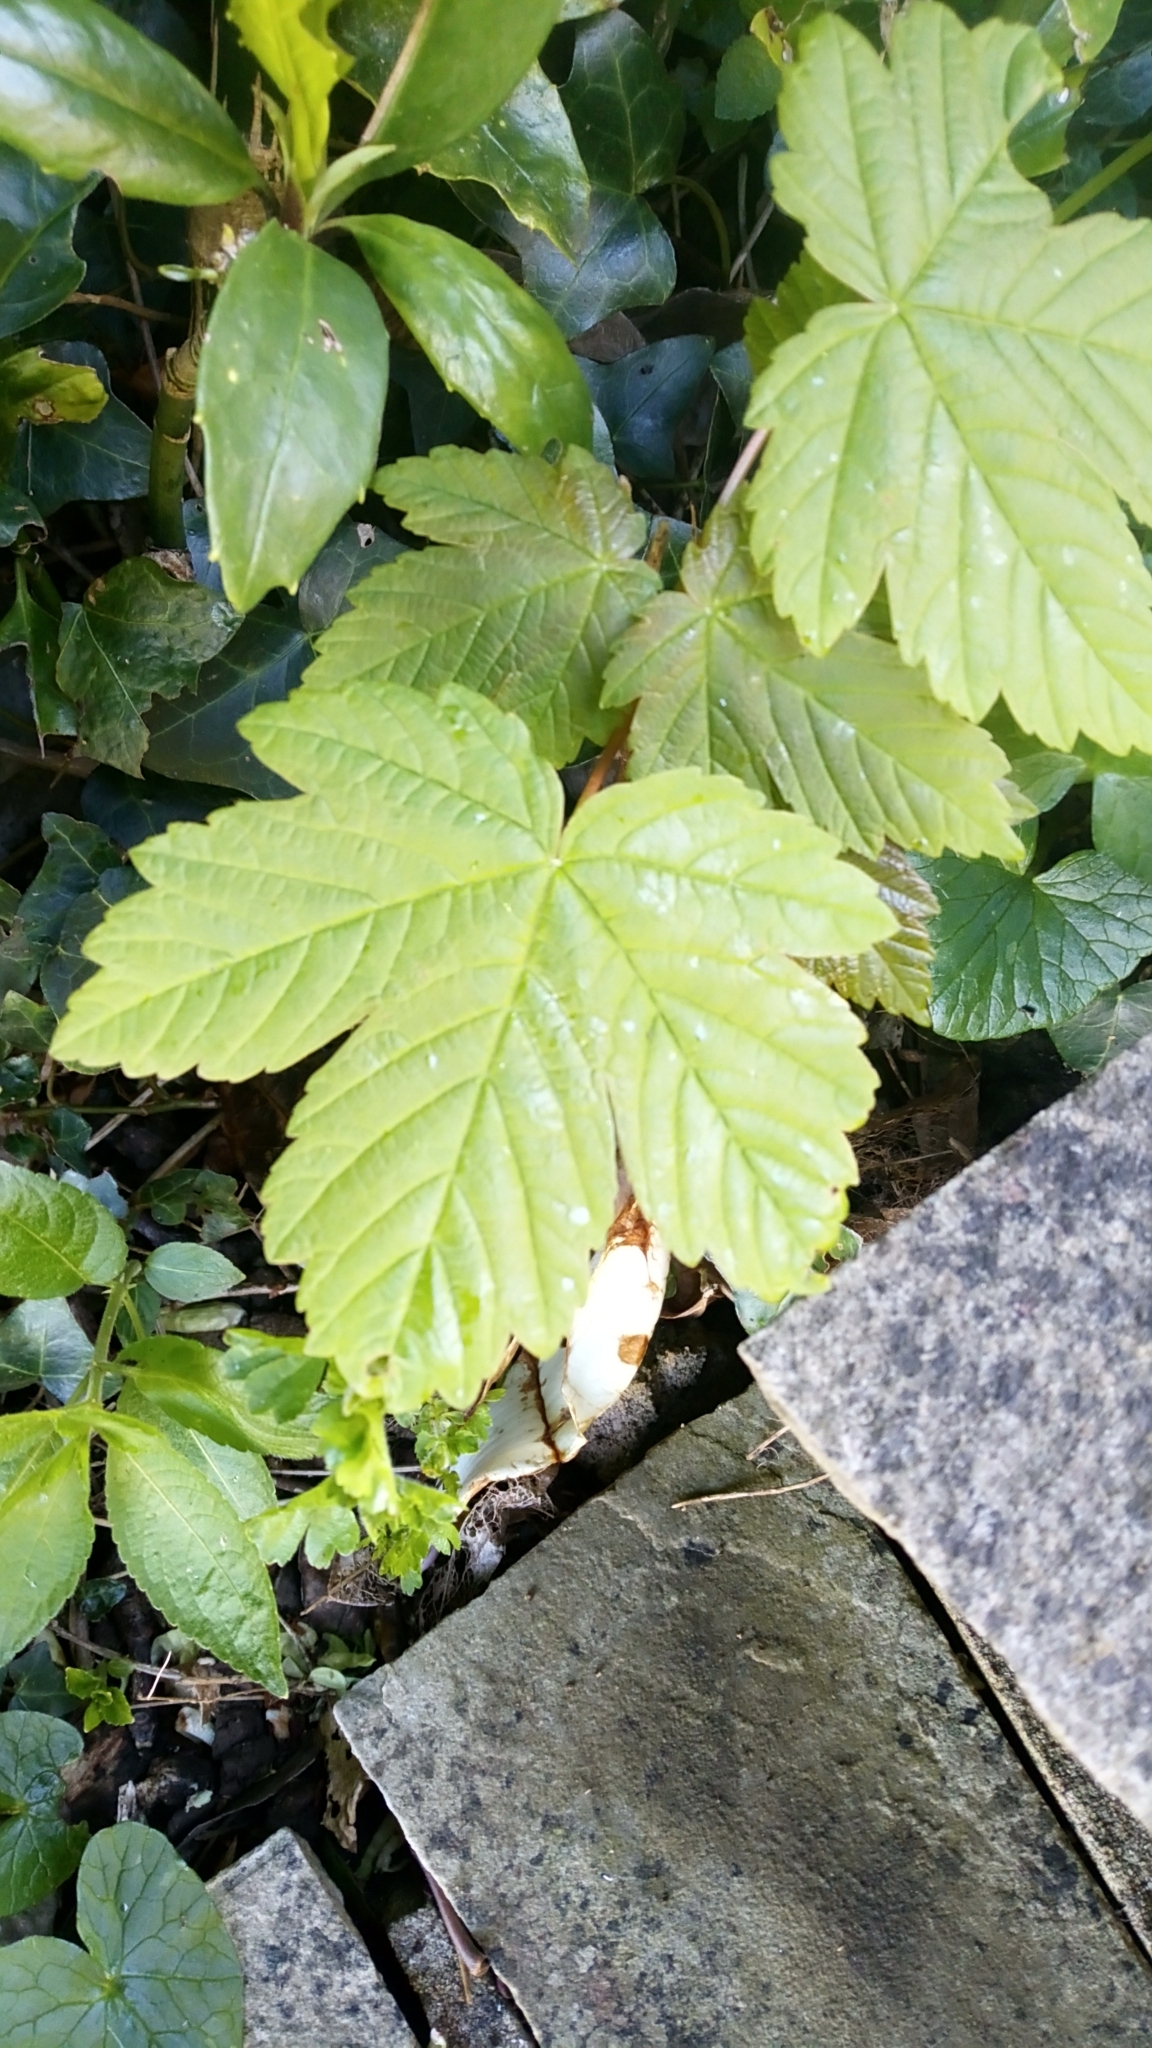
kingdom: Plantae
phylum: Tracheophyta
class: Magnoliopsida
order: Sapindales
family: Sapindaceae
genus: Acer
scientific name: Acer pseudoplatanus
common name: Sycamore
